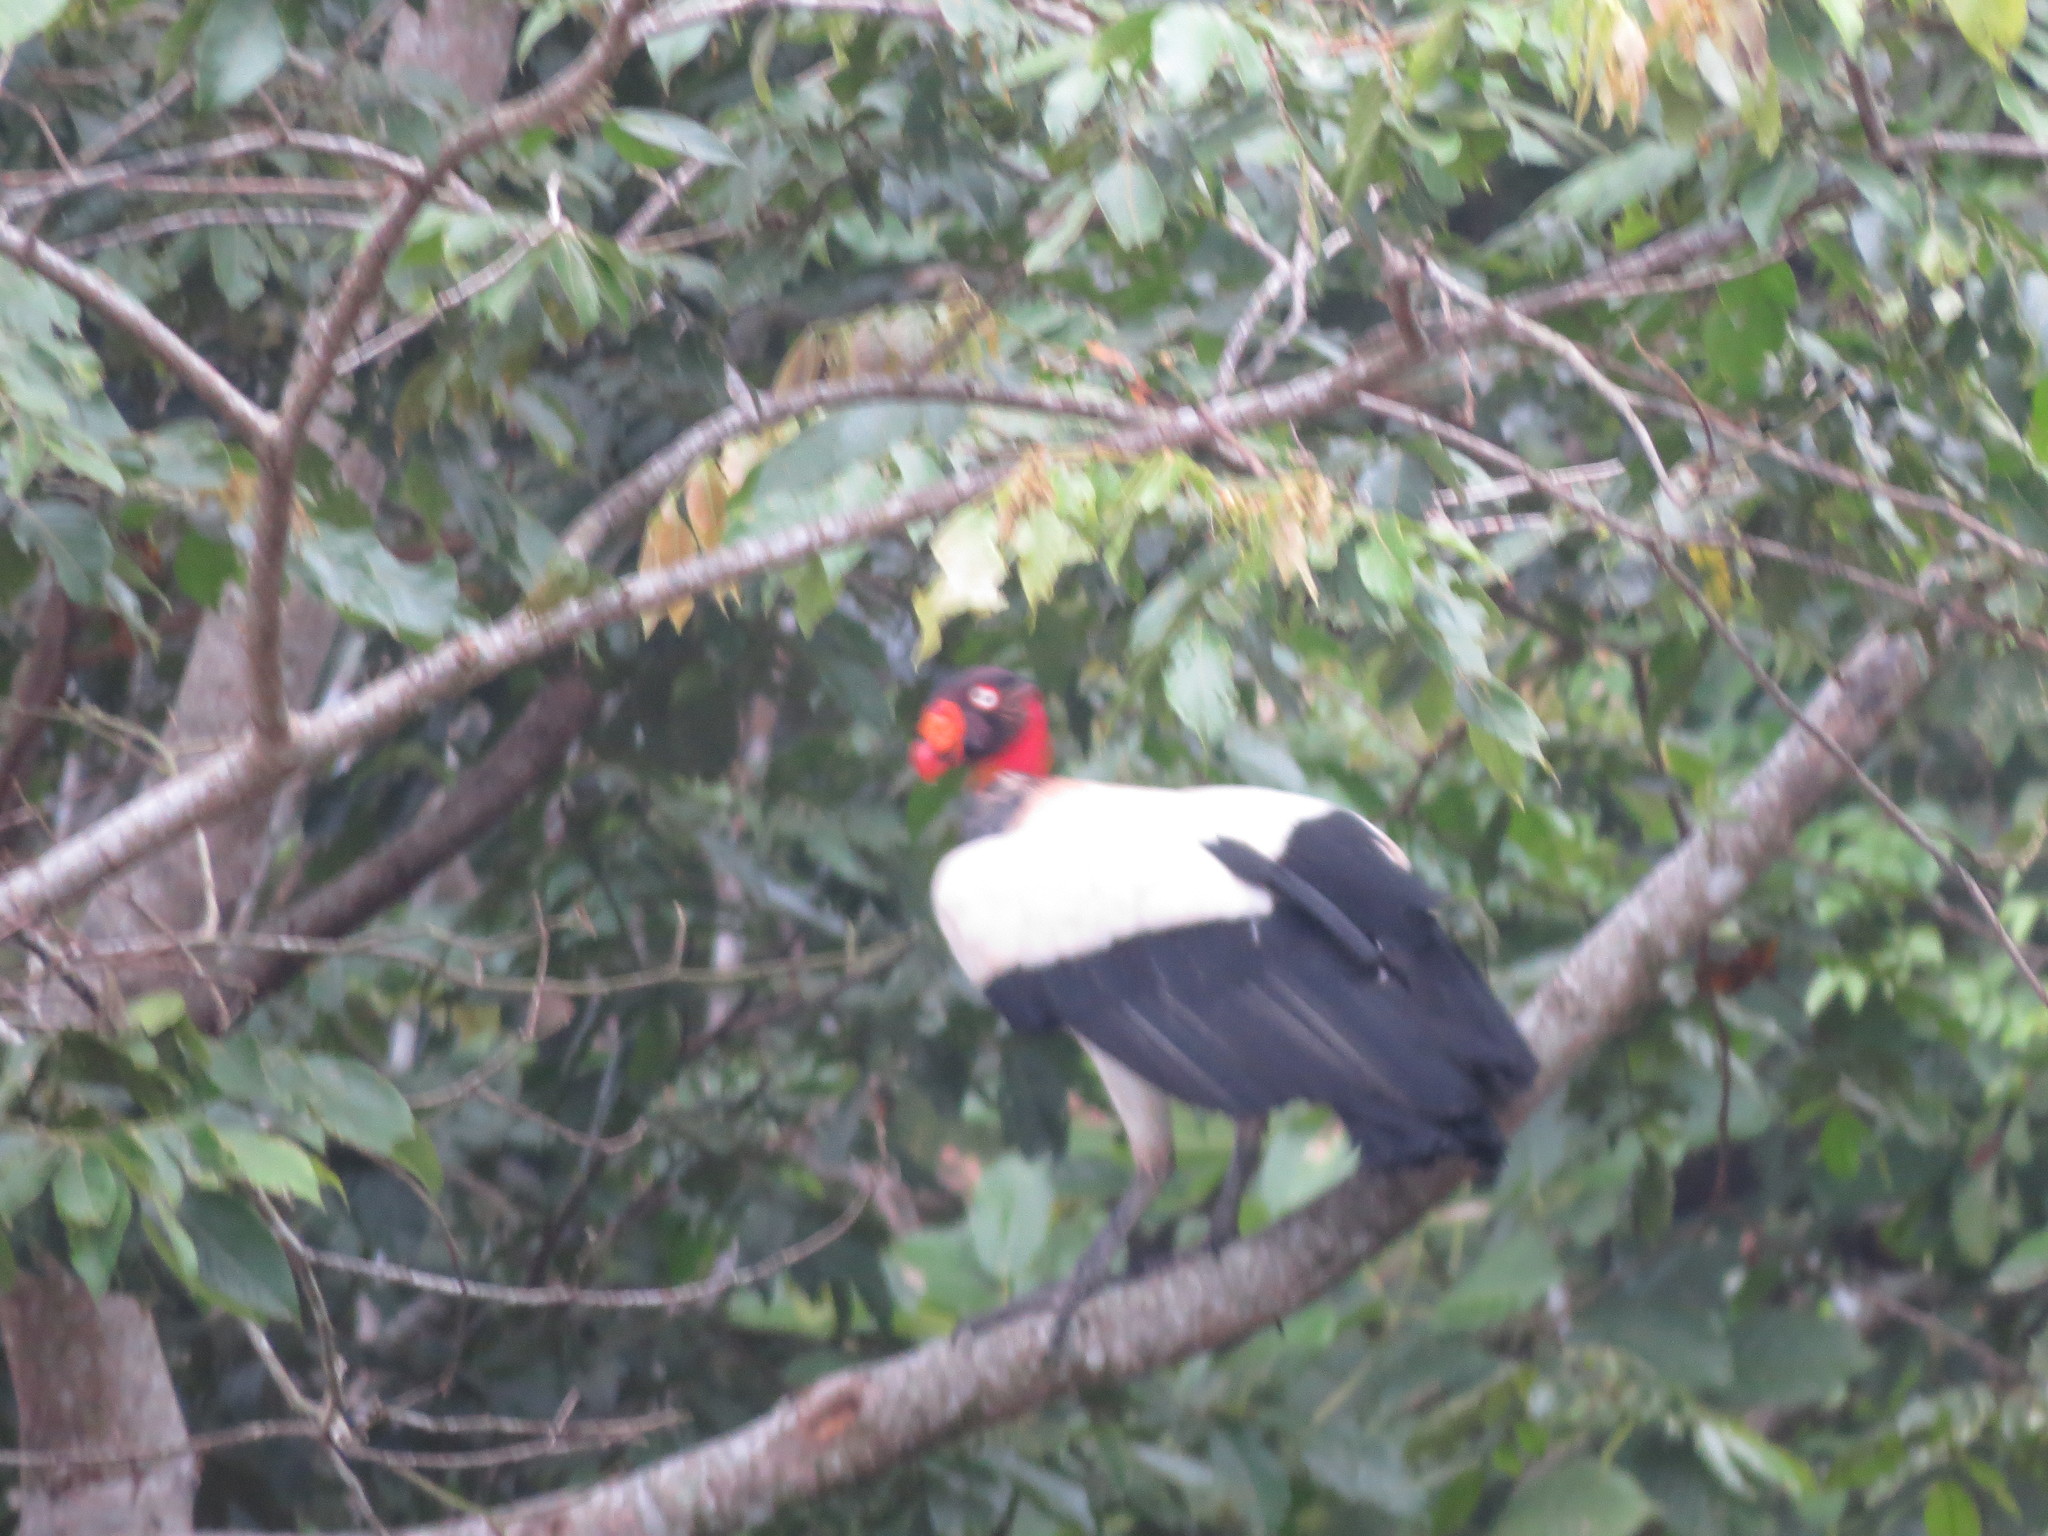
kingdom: Animalia
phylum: Chordata
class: Aves
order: Accipitriformes
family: Cathartidae
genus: Sarcoramphus
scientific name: Sarcoramphus papa
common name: King vulture
